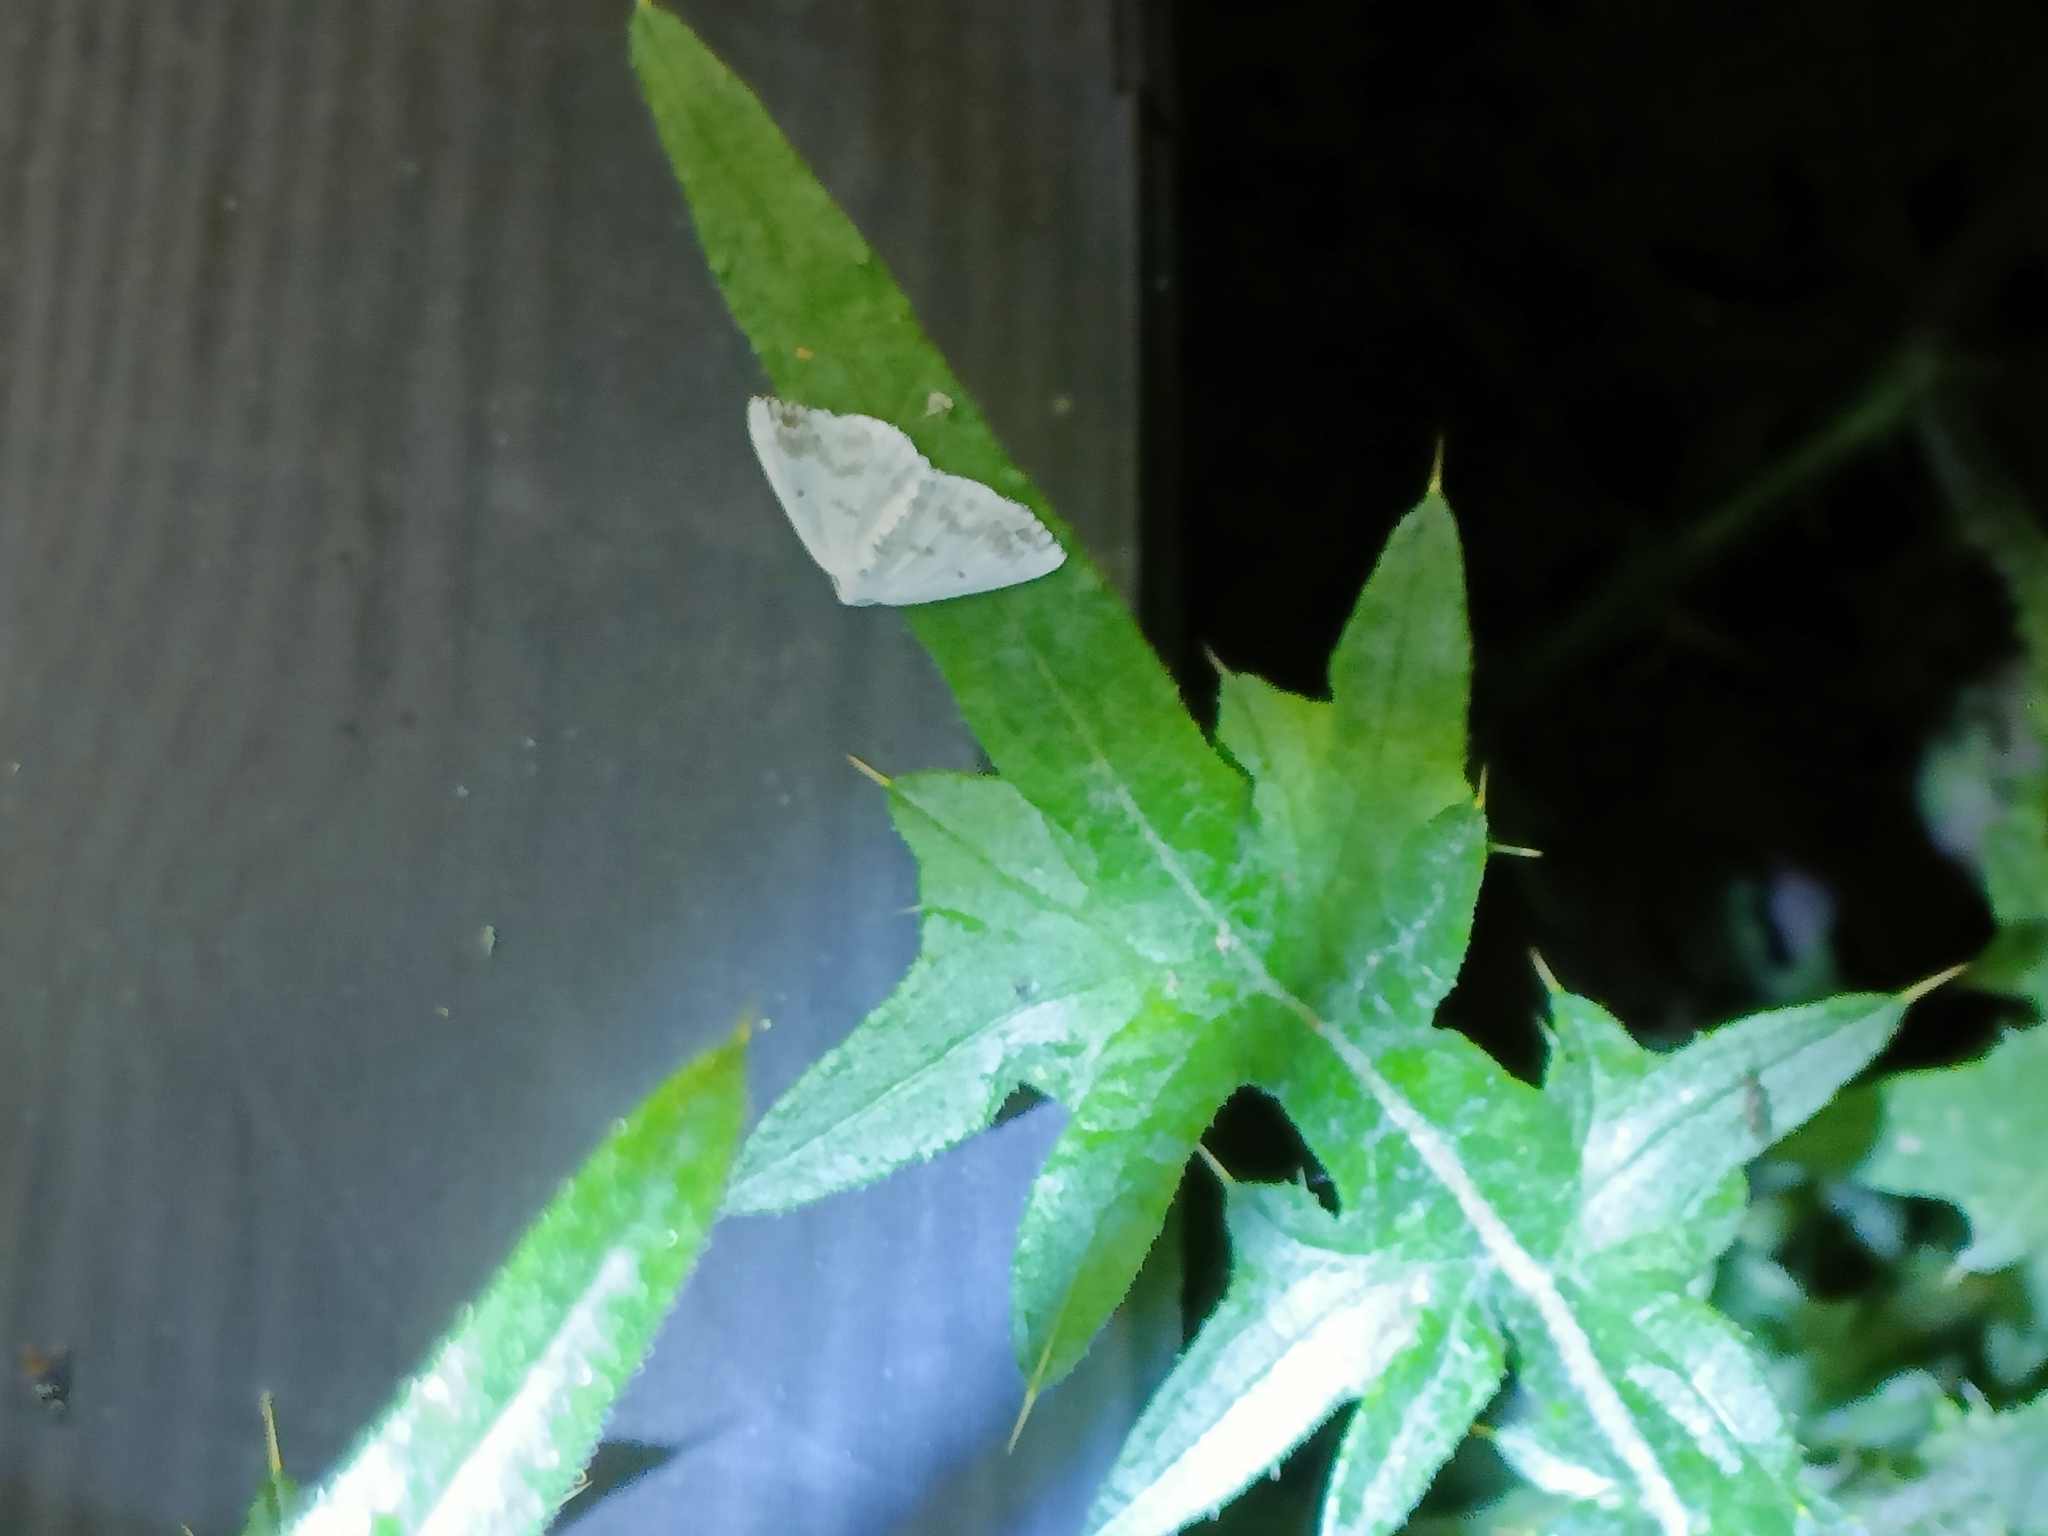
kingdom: Animalia
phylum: Arthropoda
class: Insecta
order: Lepidoptera
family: Geometridae
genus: Lomographa
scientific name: Lomographa temerata
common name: Clouded silver
